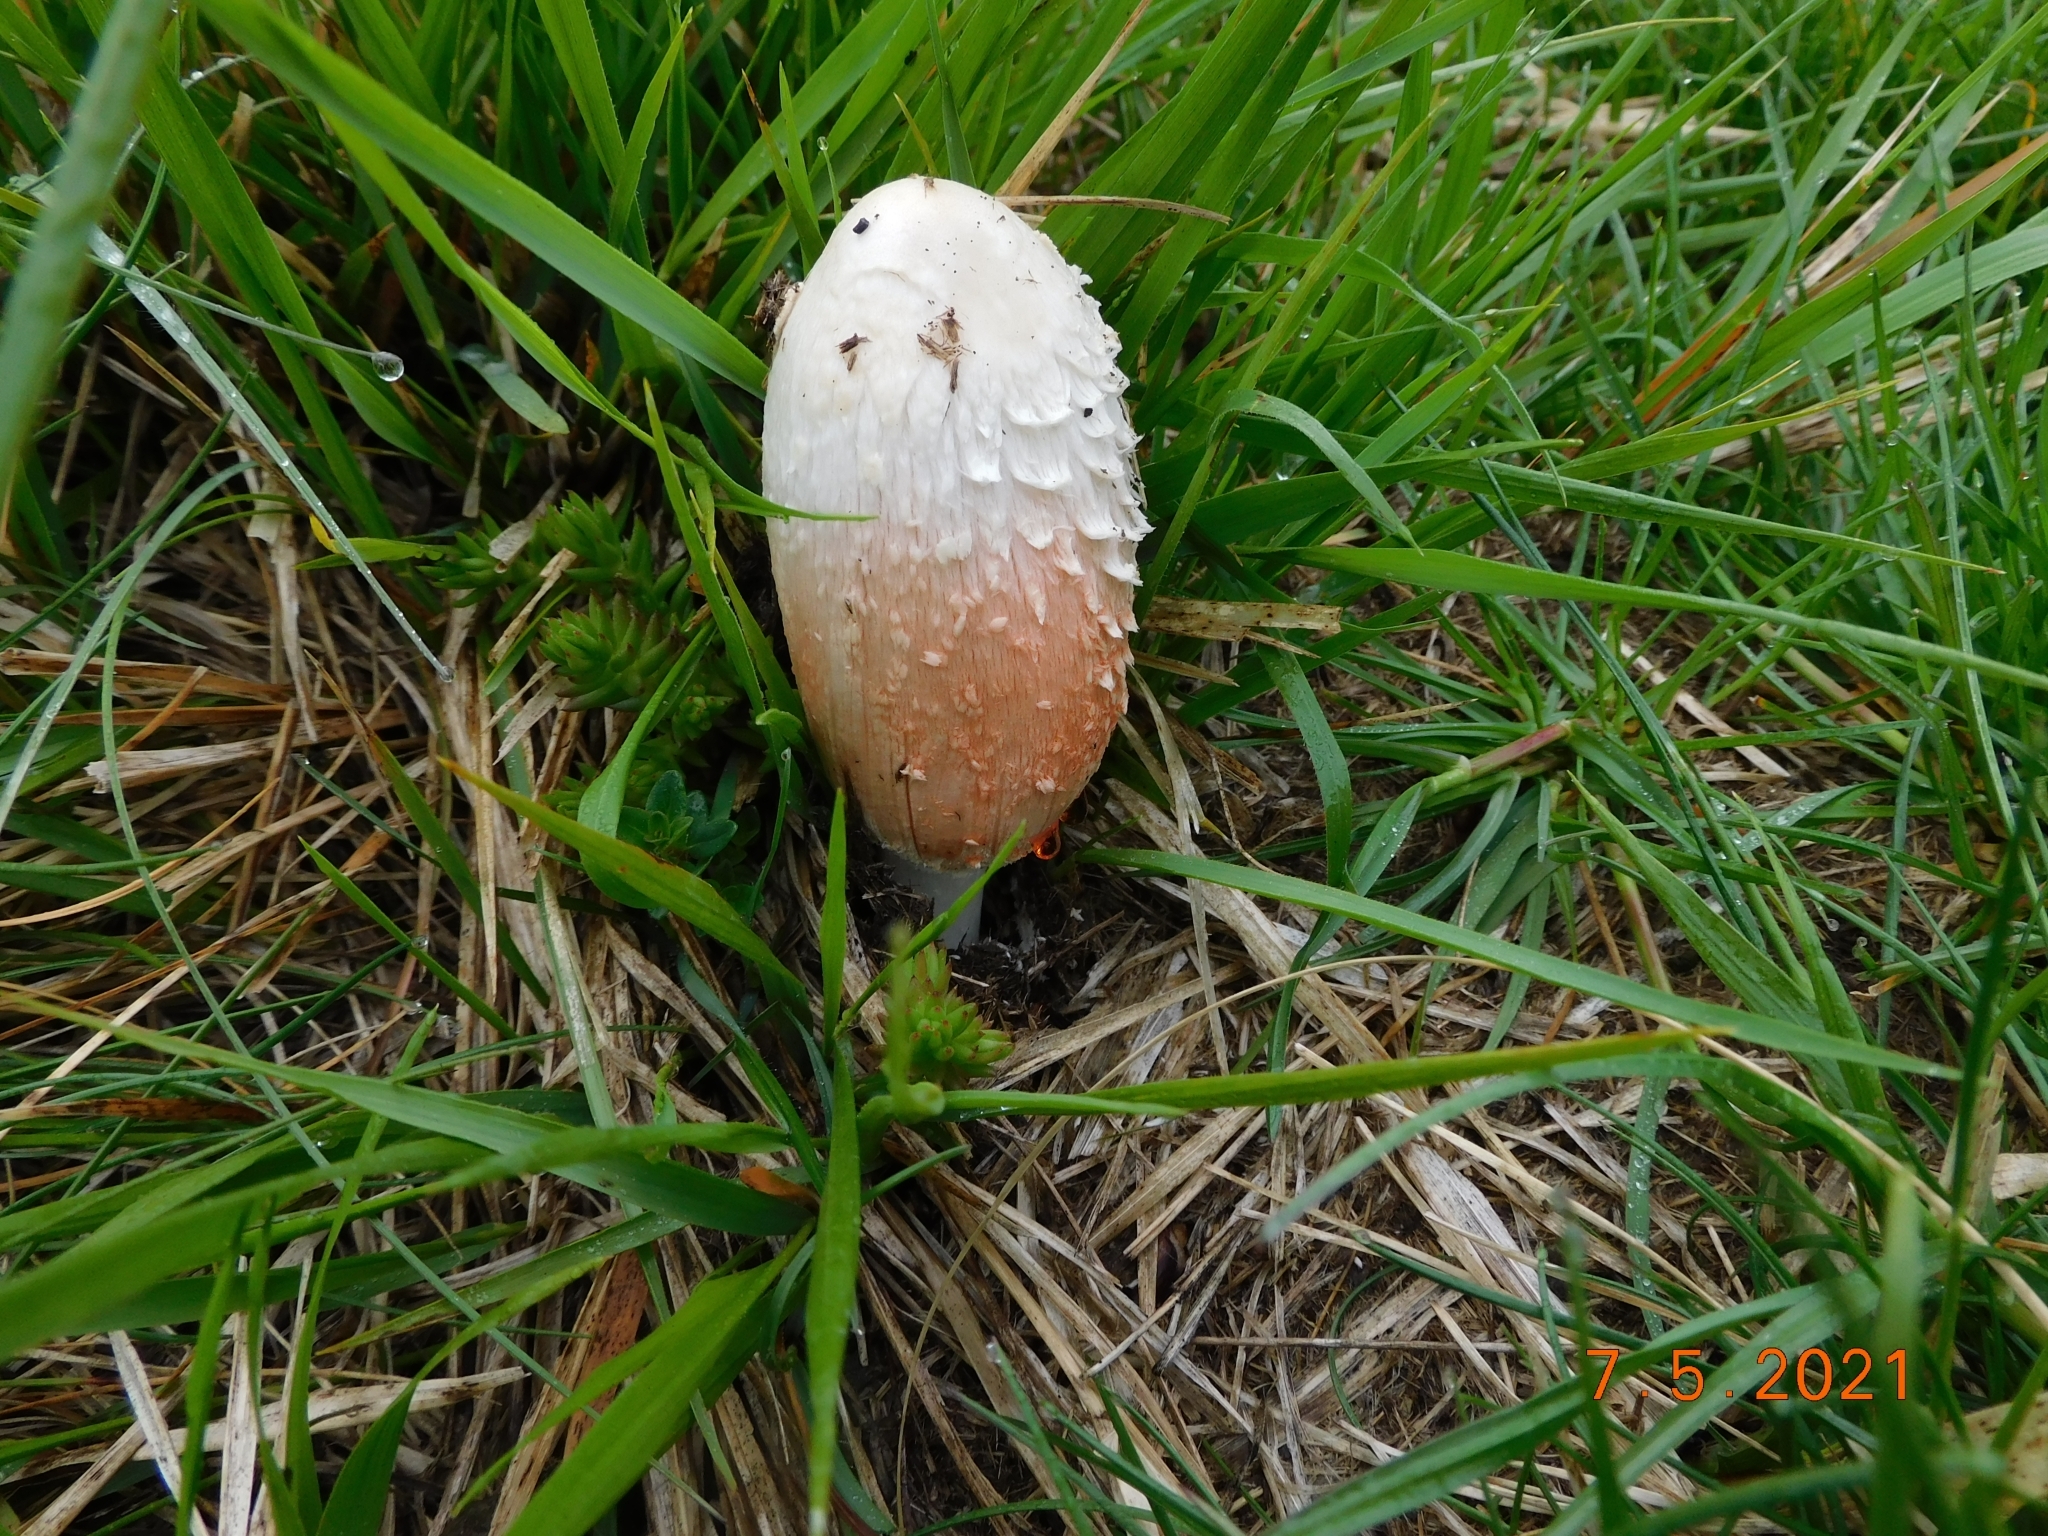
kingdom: Fungi
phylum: Basidiomycota
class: Agaricomycetes
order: Agaricales
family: Agaricaceae
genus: Coprinus
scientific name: Coprinus comatus
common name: Lawyer's wig
